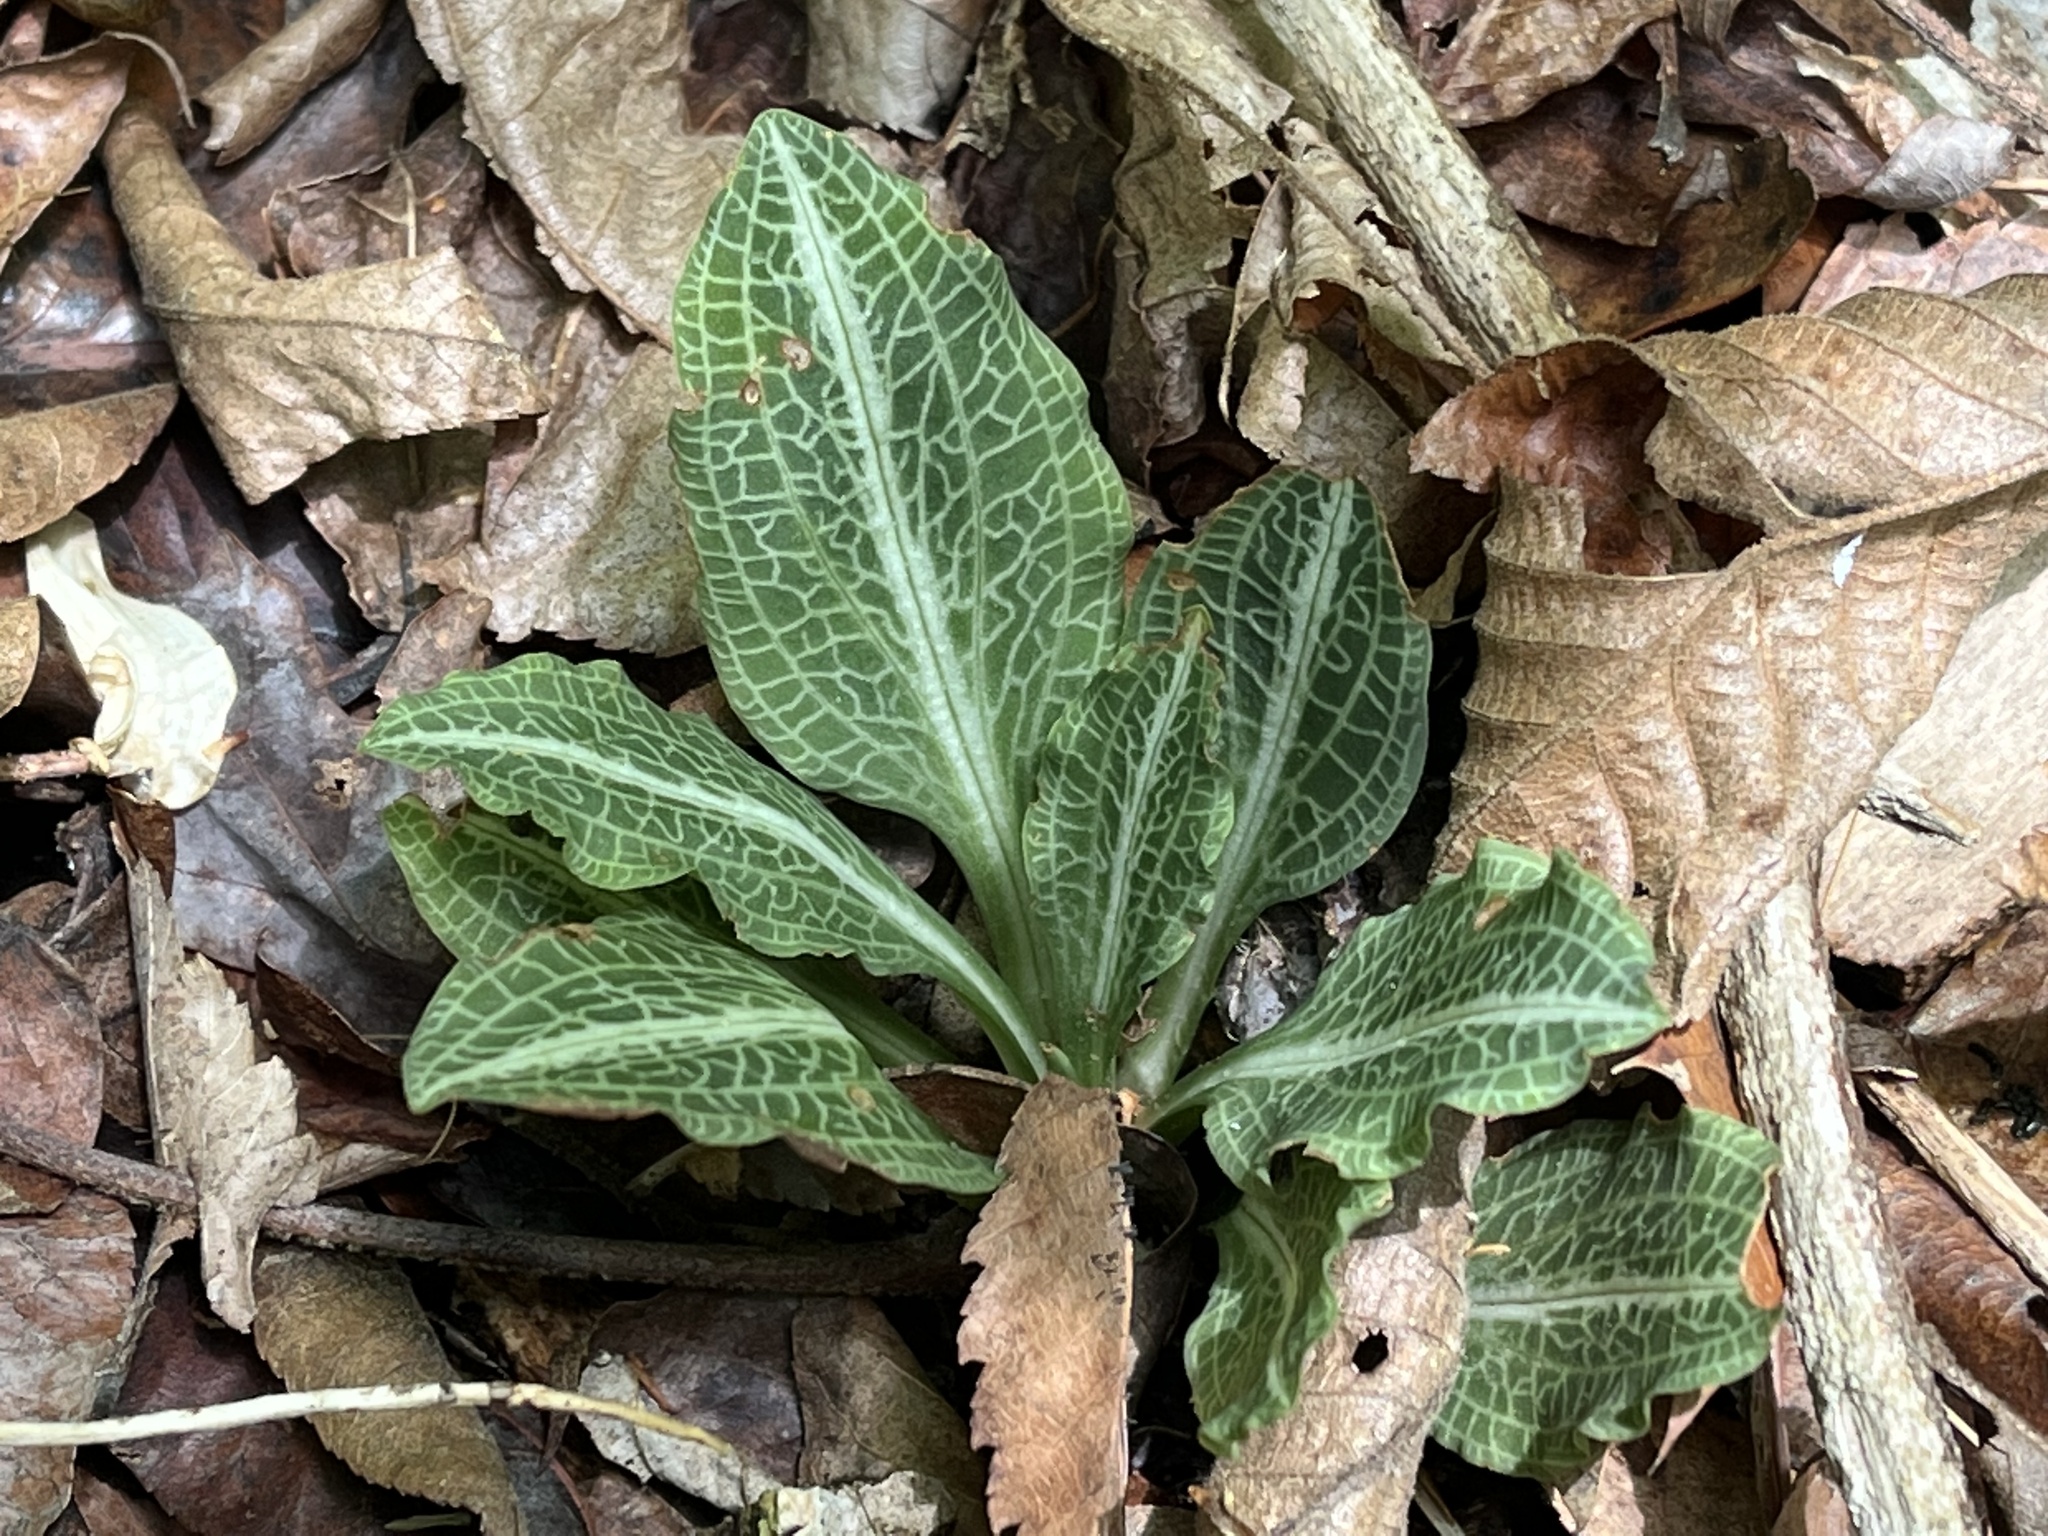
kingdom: Plantae
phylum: Tracheophyta
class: Liliopsida
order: Asparagales
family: Orchidaceae
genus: Goodyera
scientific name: Goodyera pubescens
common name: Downy rattlesnake-plantain
